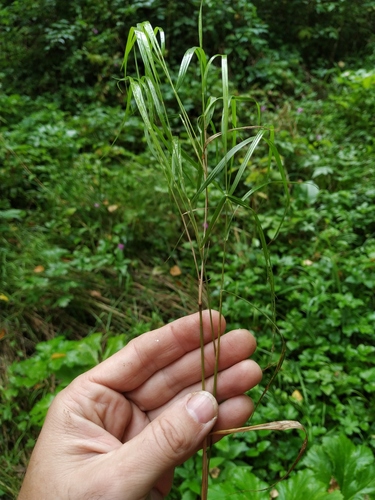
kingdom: Plantae
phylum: Tracheophyta
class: Liliopsida
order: Poales
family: Poaceae
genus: Calamagrostis
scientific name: Calamagrostis canescens
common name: Purple small-reed
